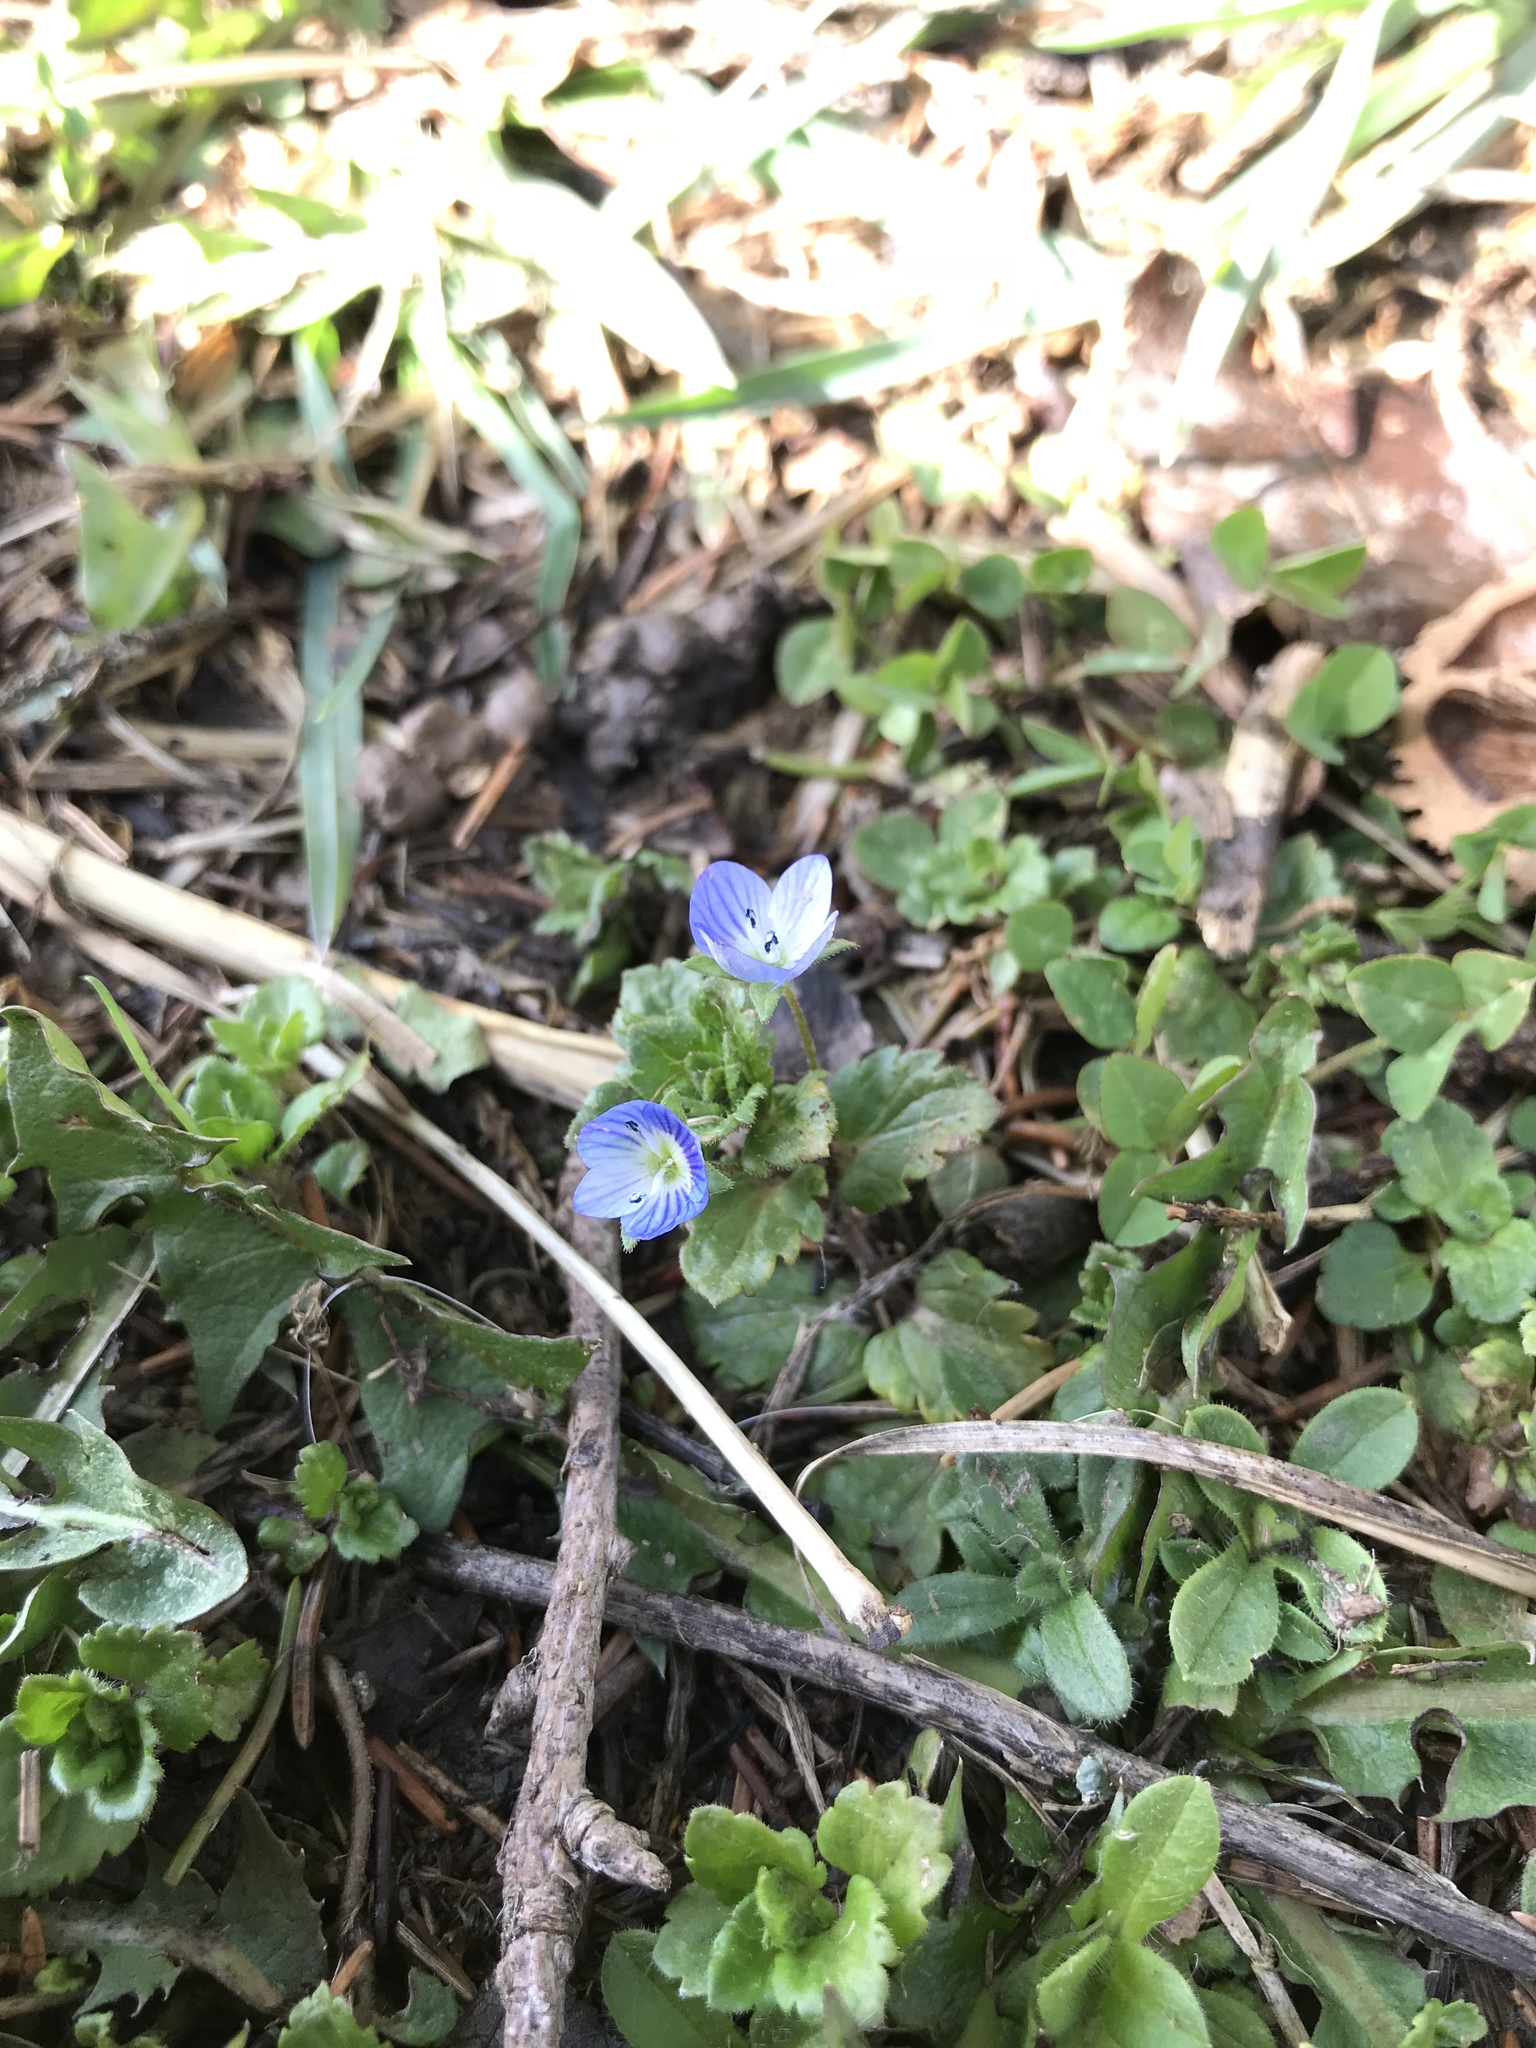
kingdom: Plantae
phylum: Tracheophyta
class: Magnoliopsida
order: Lamiales
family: Plantaginaceae
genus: Veronica
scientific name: Veronica persica
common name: Common field-speedwell
